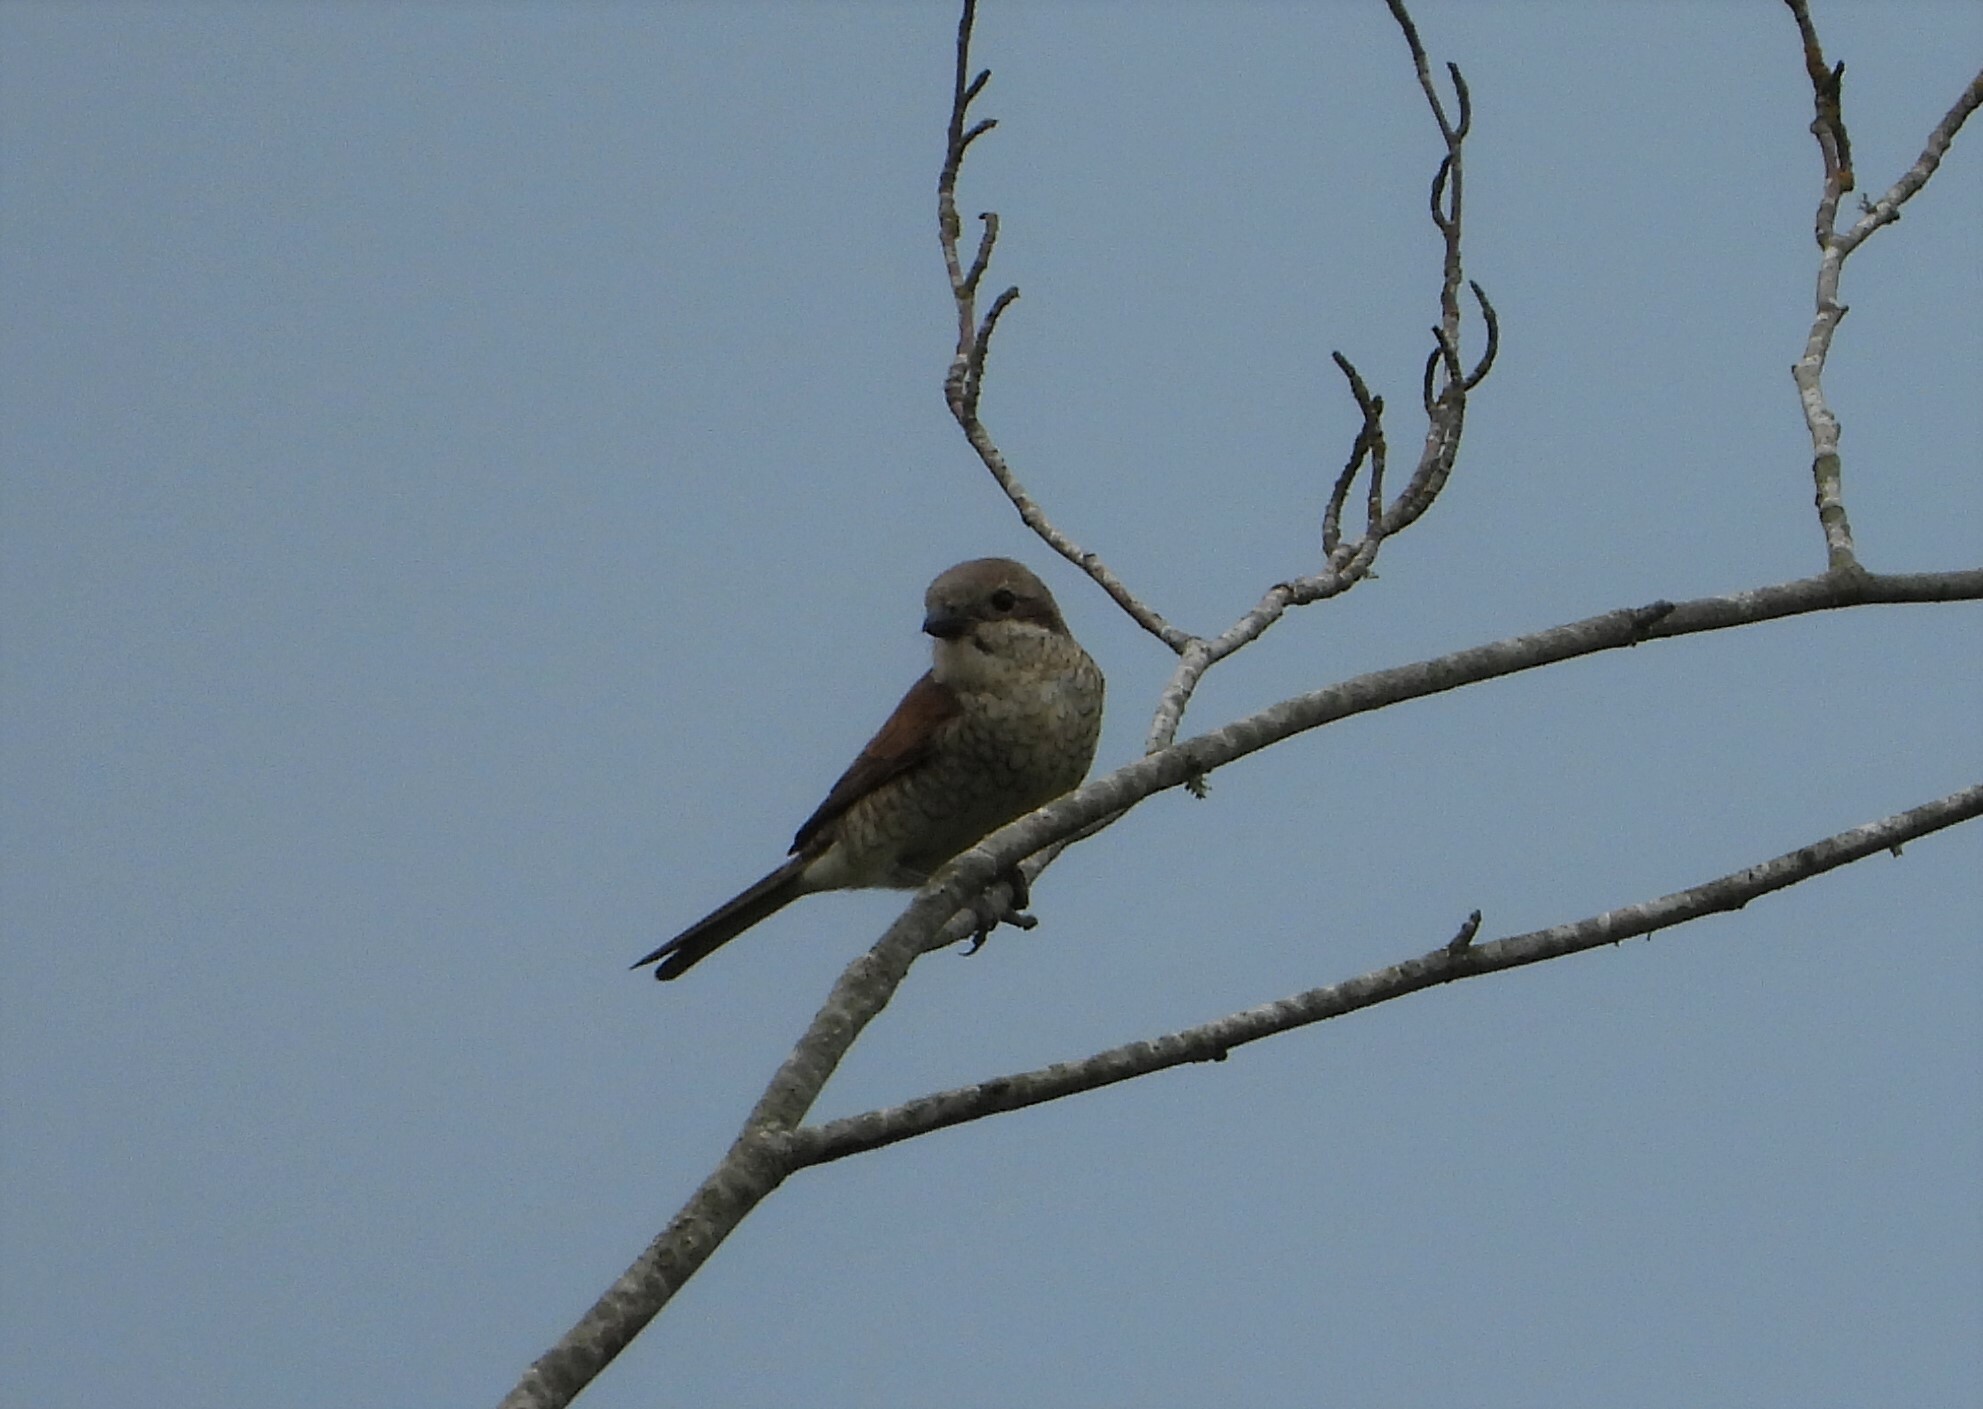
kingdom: Animalia
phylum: Chordata
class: Aves
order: Passeriformes
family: Laniidae
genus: Lanius
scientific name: Lanius collurio
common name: Red-backed shrike
